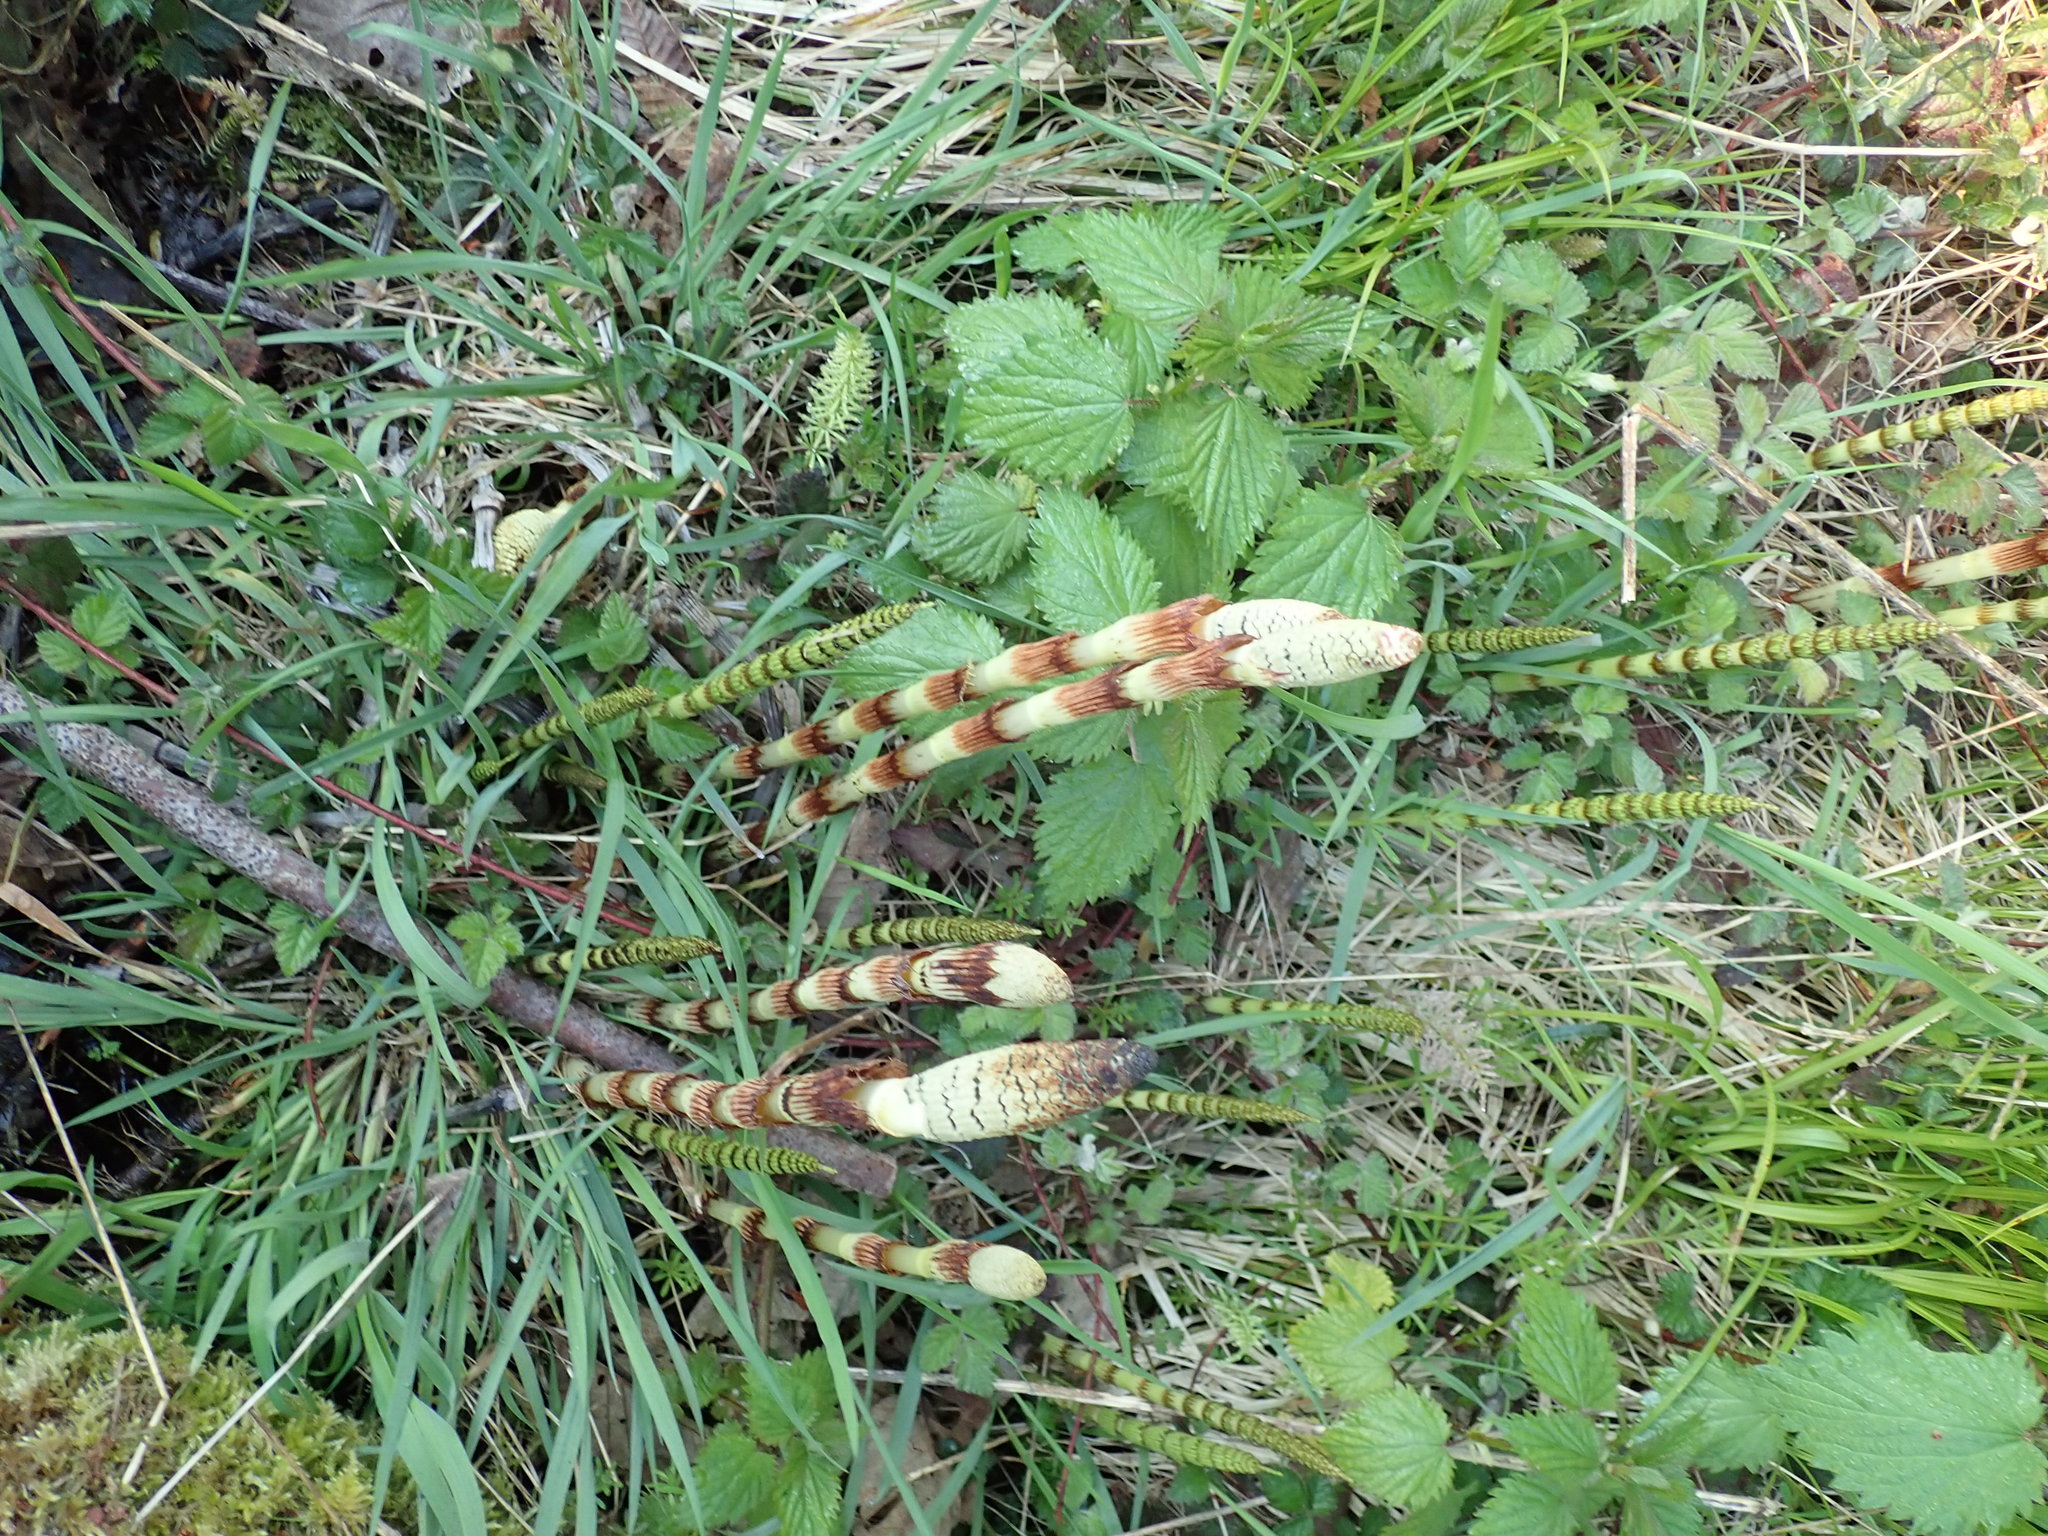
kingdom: Plantae
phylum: Tracheophyta
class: Polypodiopsida
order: Equisetales
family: Equisetaceae
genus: Equisetum
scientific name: Equisetum telmateia
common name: Great horsetail
